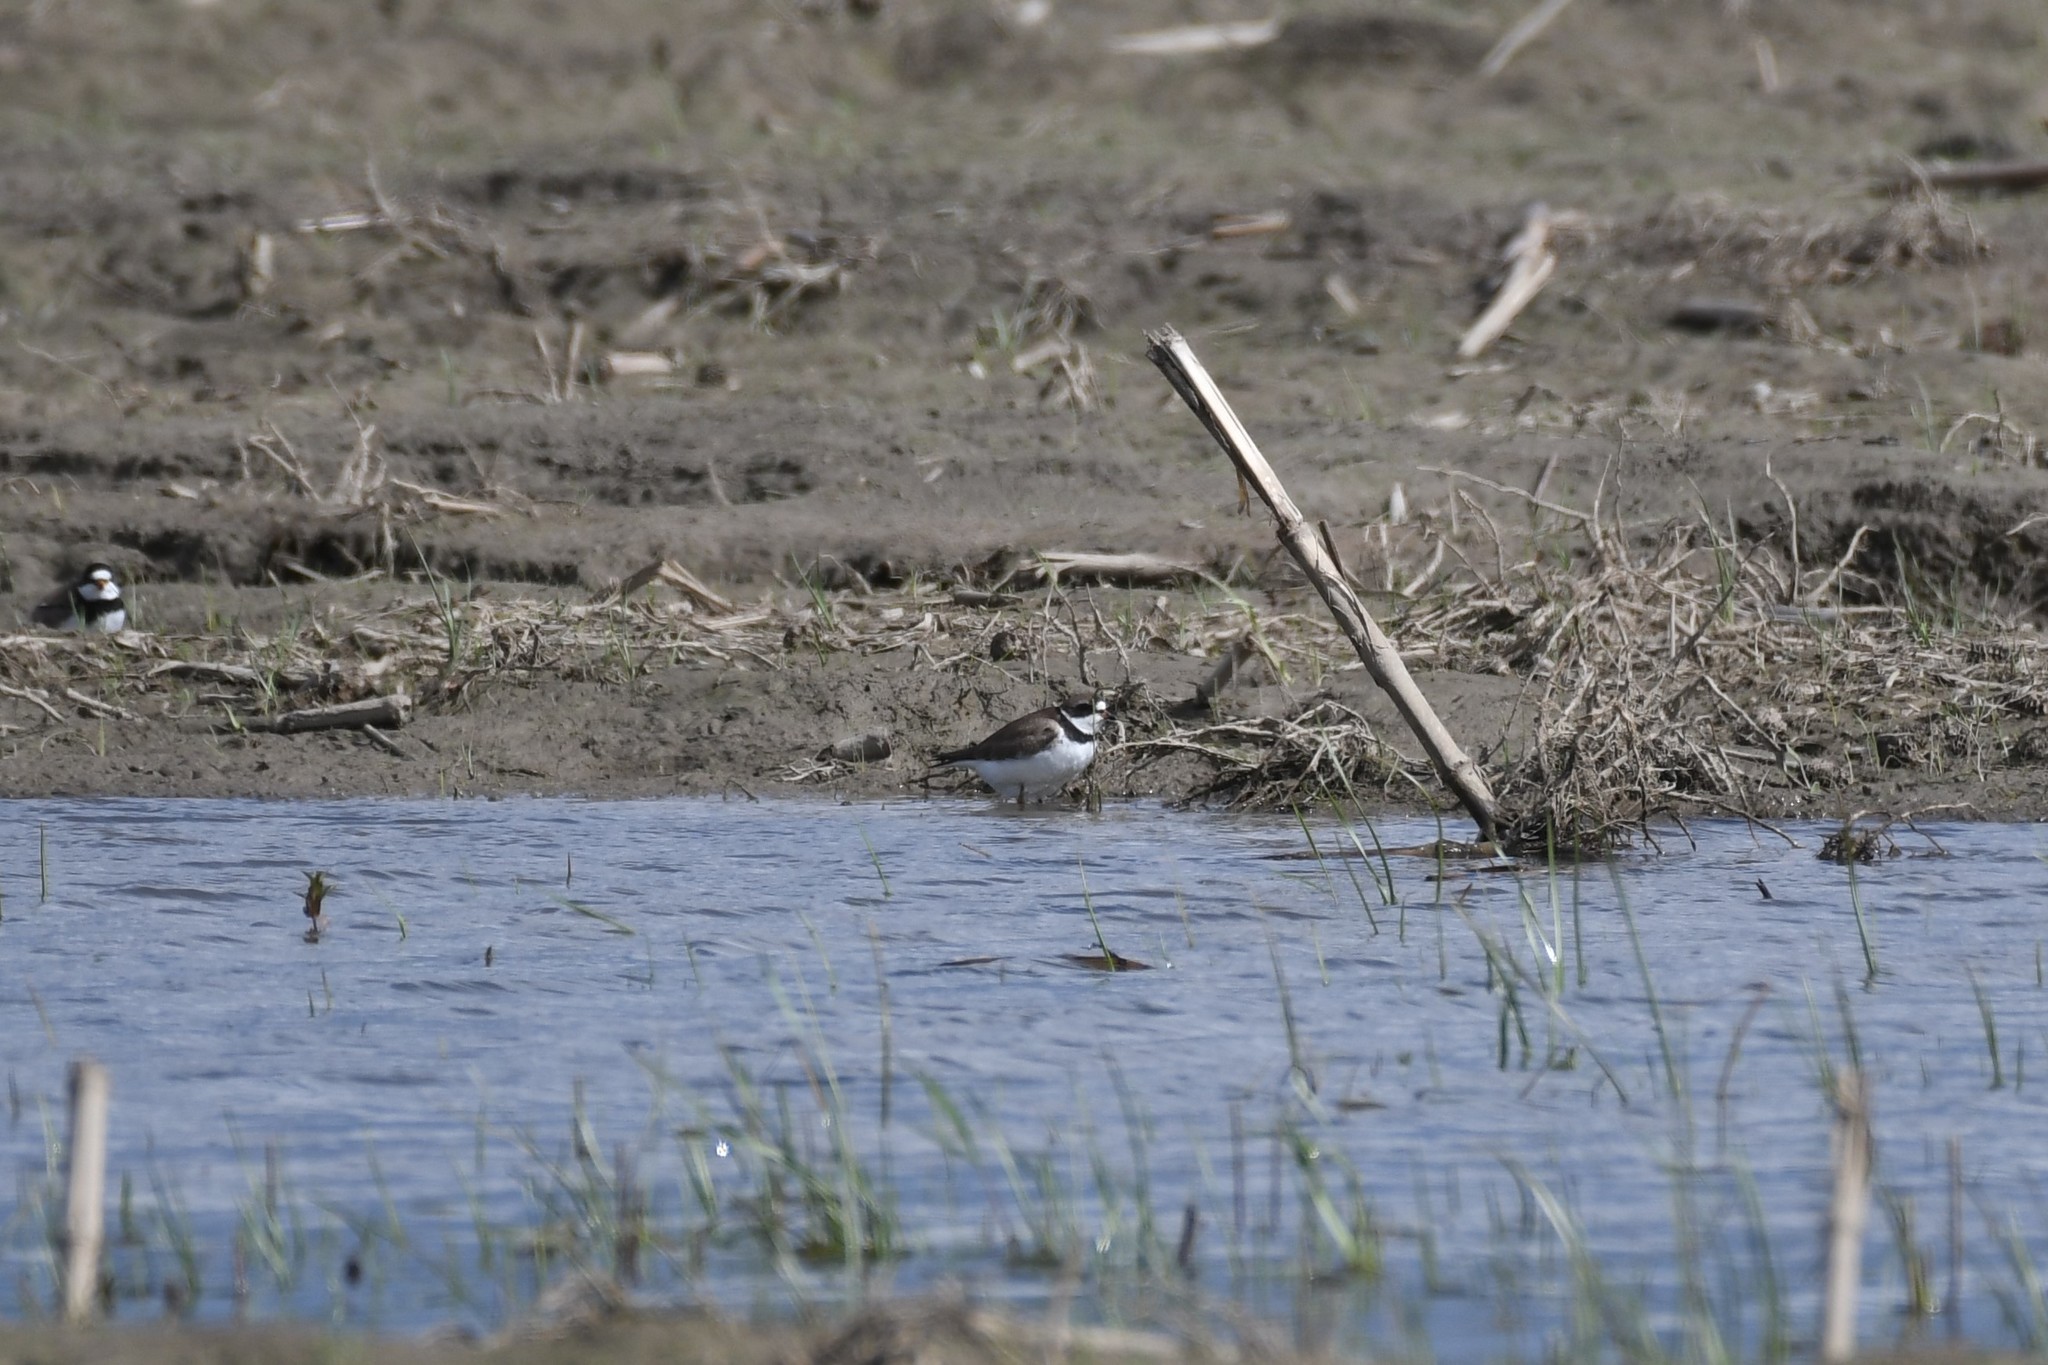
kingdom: Animalia
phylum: Chordata
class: Aves
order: Charadriiformes
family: Charadriidae
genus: Charadrius
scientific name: Charadrius semipalmatus
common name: Semipalmated plover
